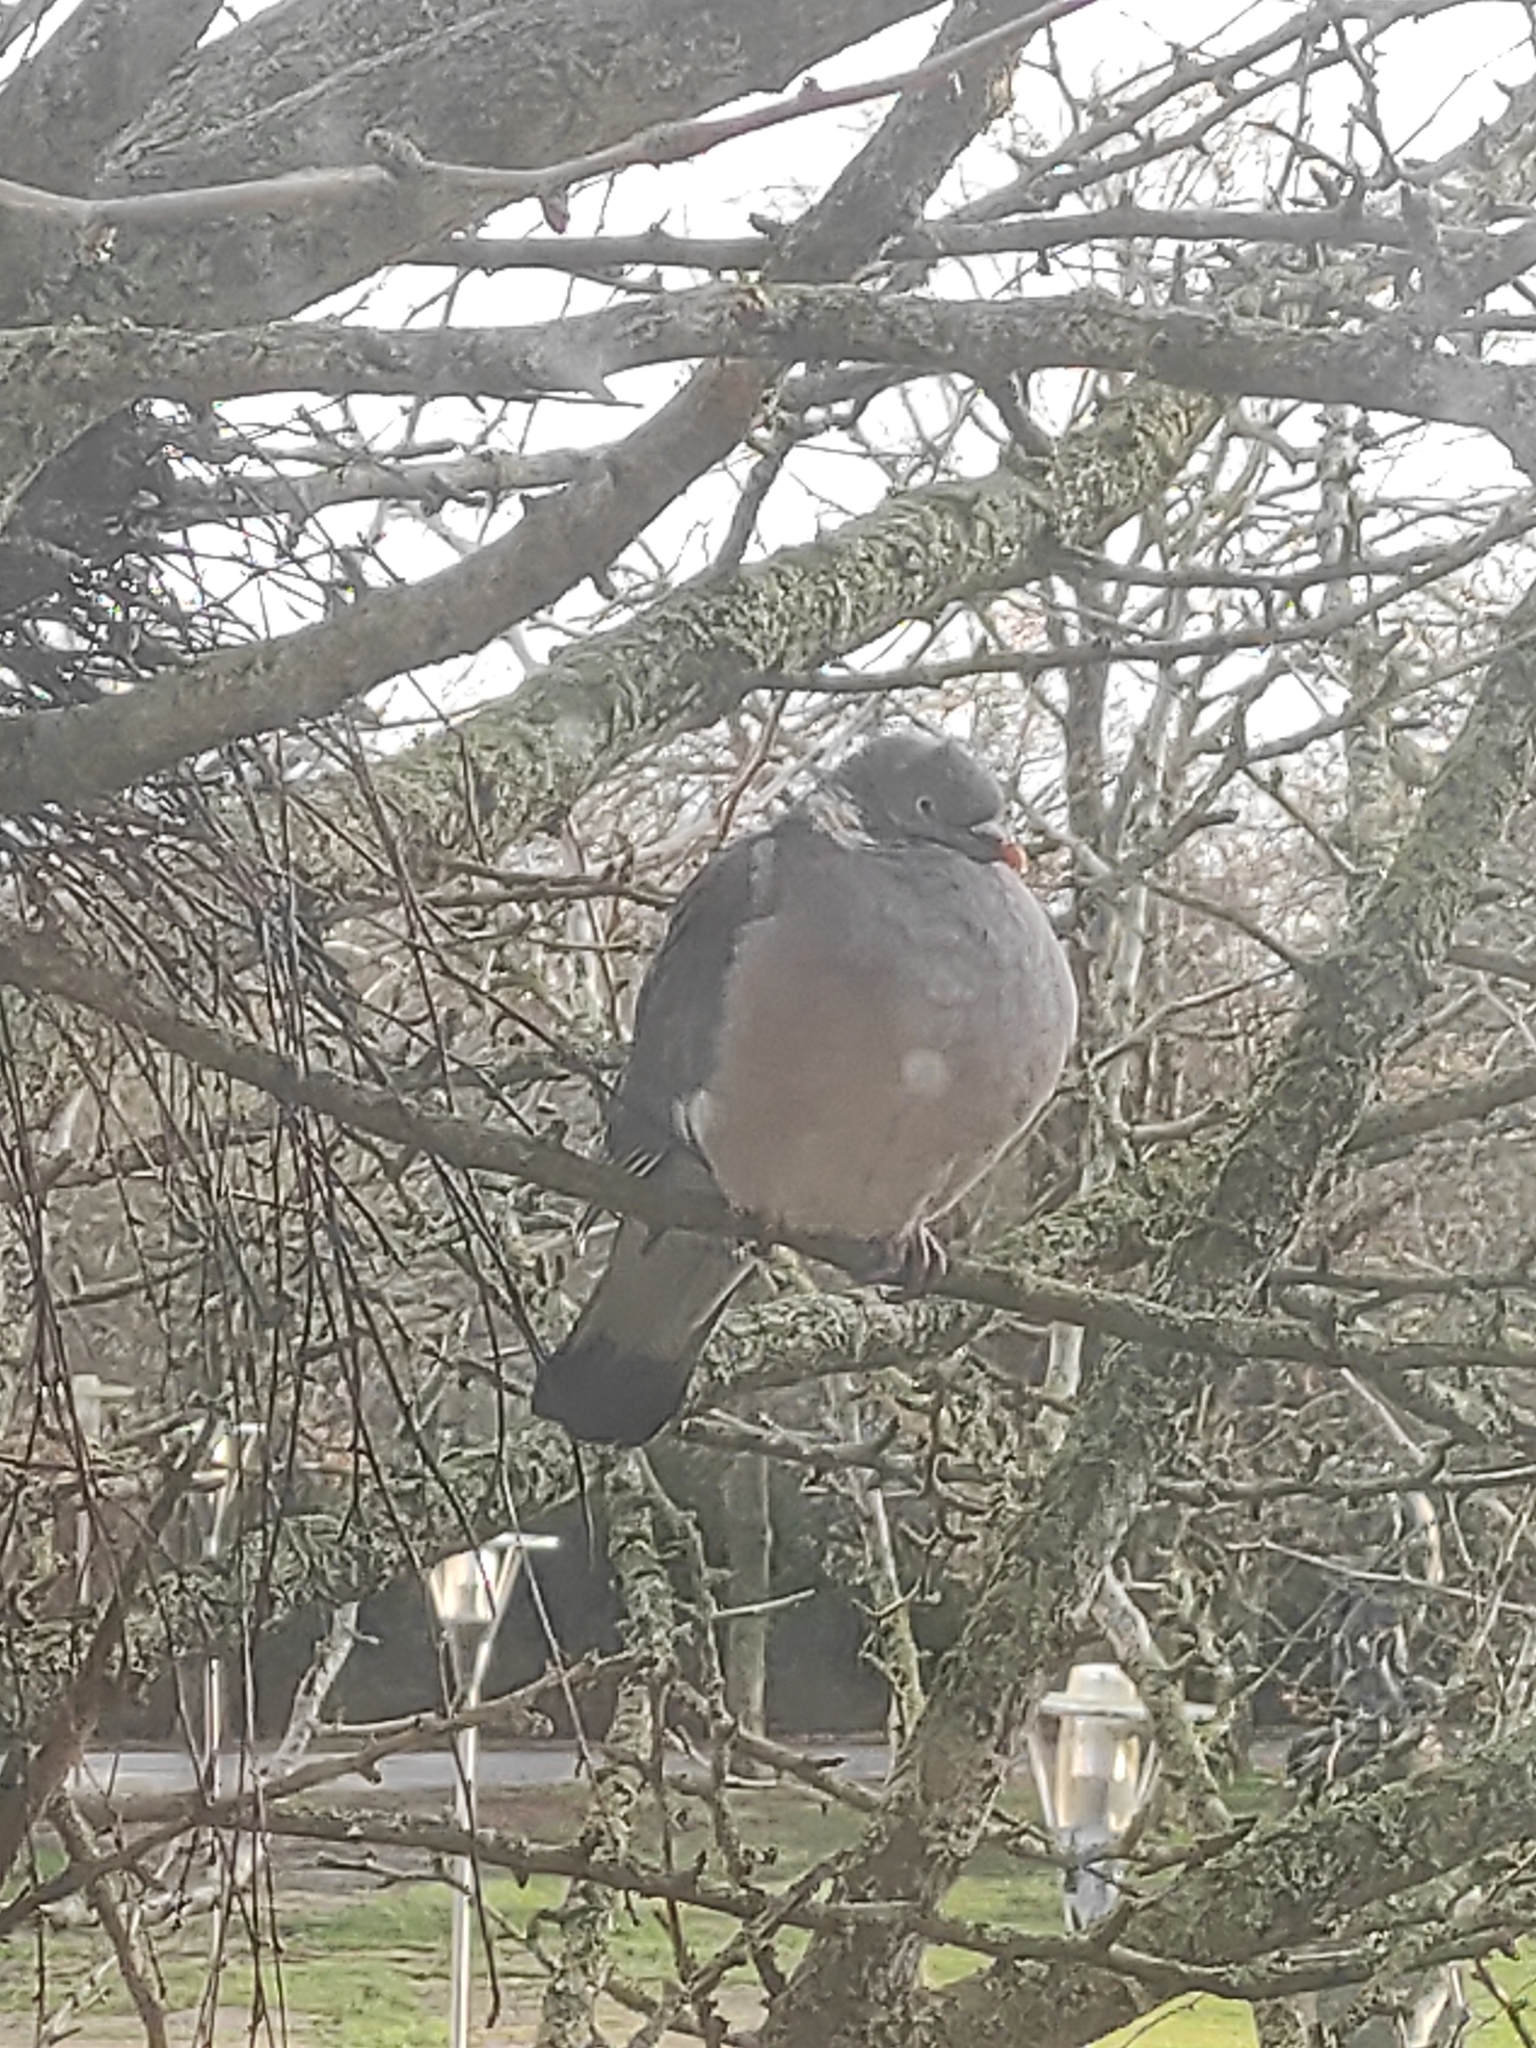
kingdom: Animalia
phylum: Chordata
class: Aves
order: Columbiformes
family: Columbidae
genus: Columba
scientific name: Columba palumbus
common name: Common wood pigeon
